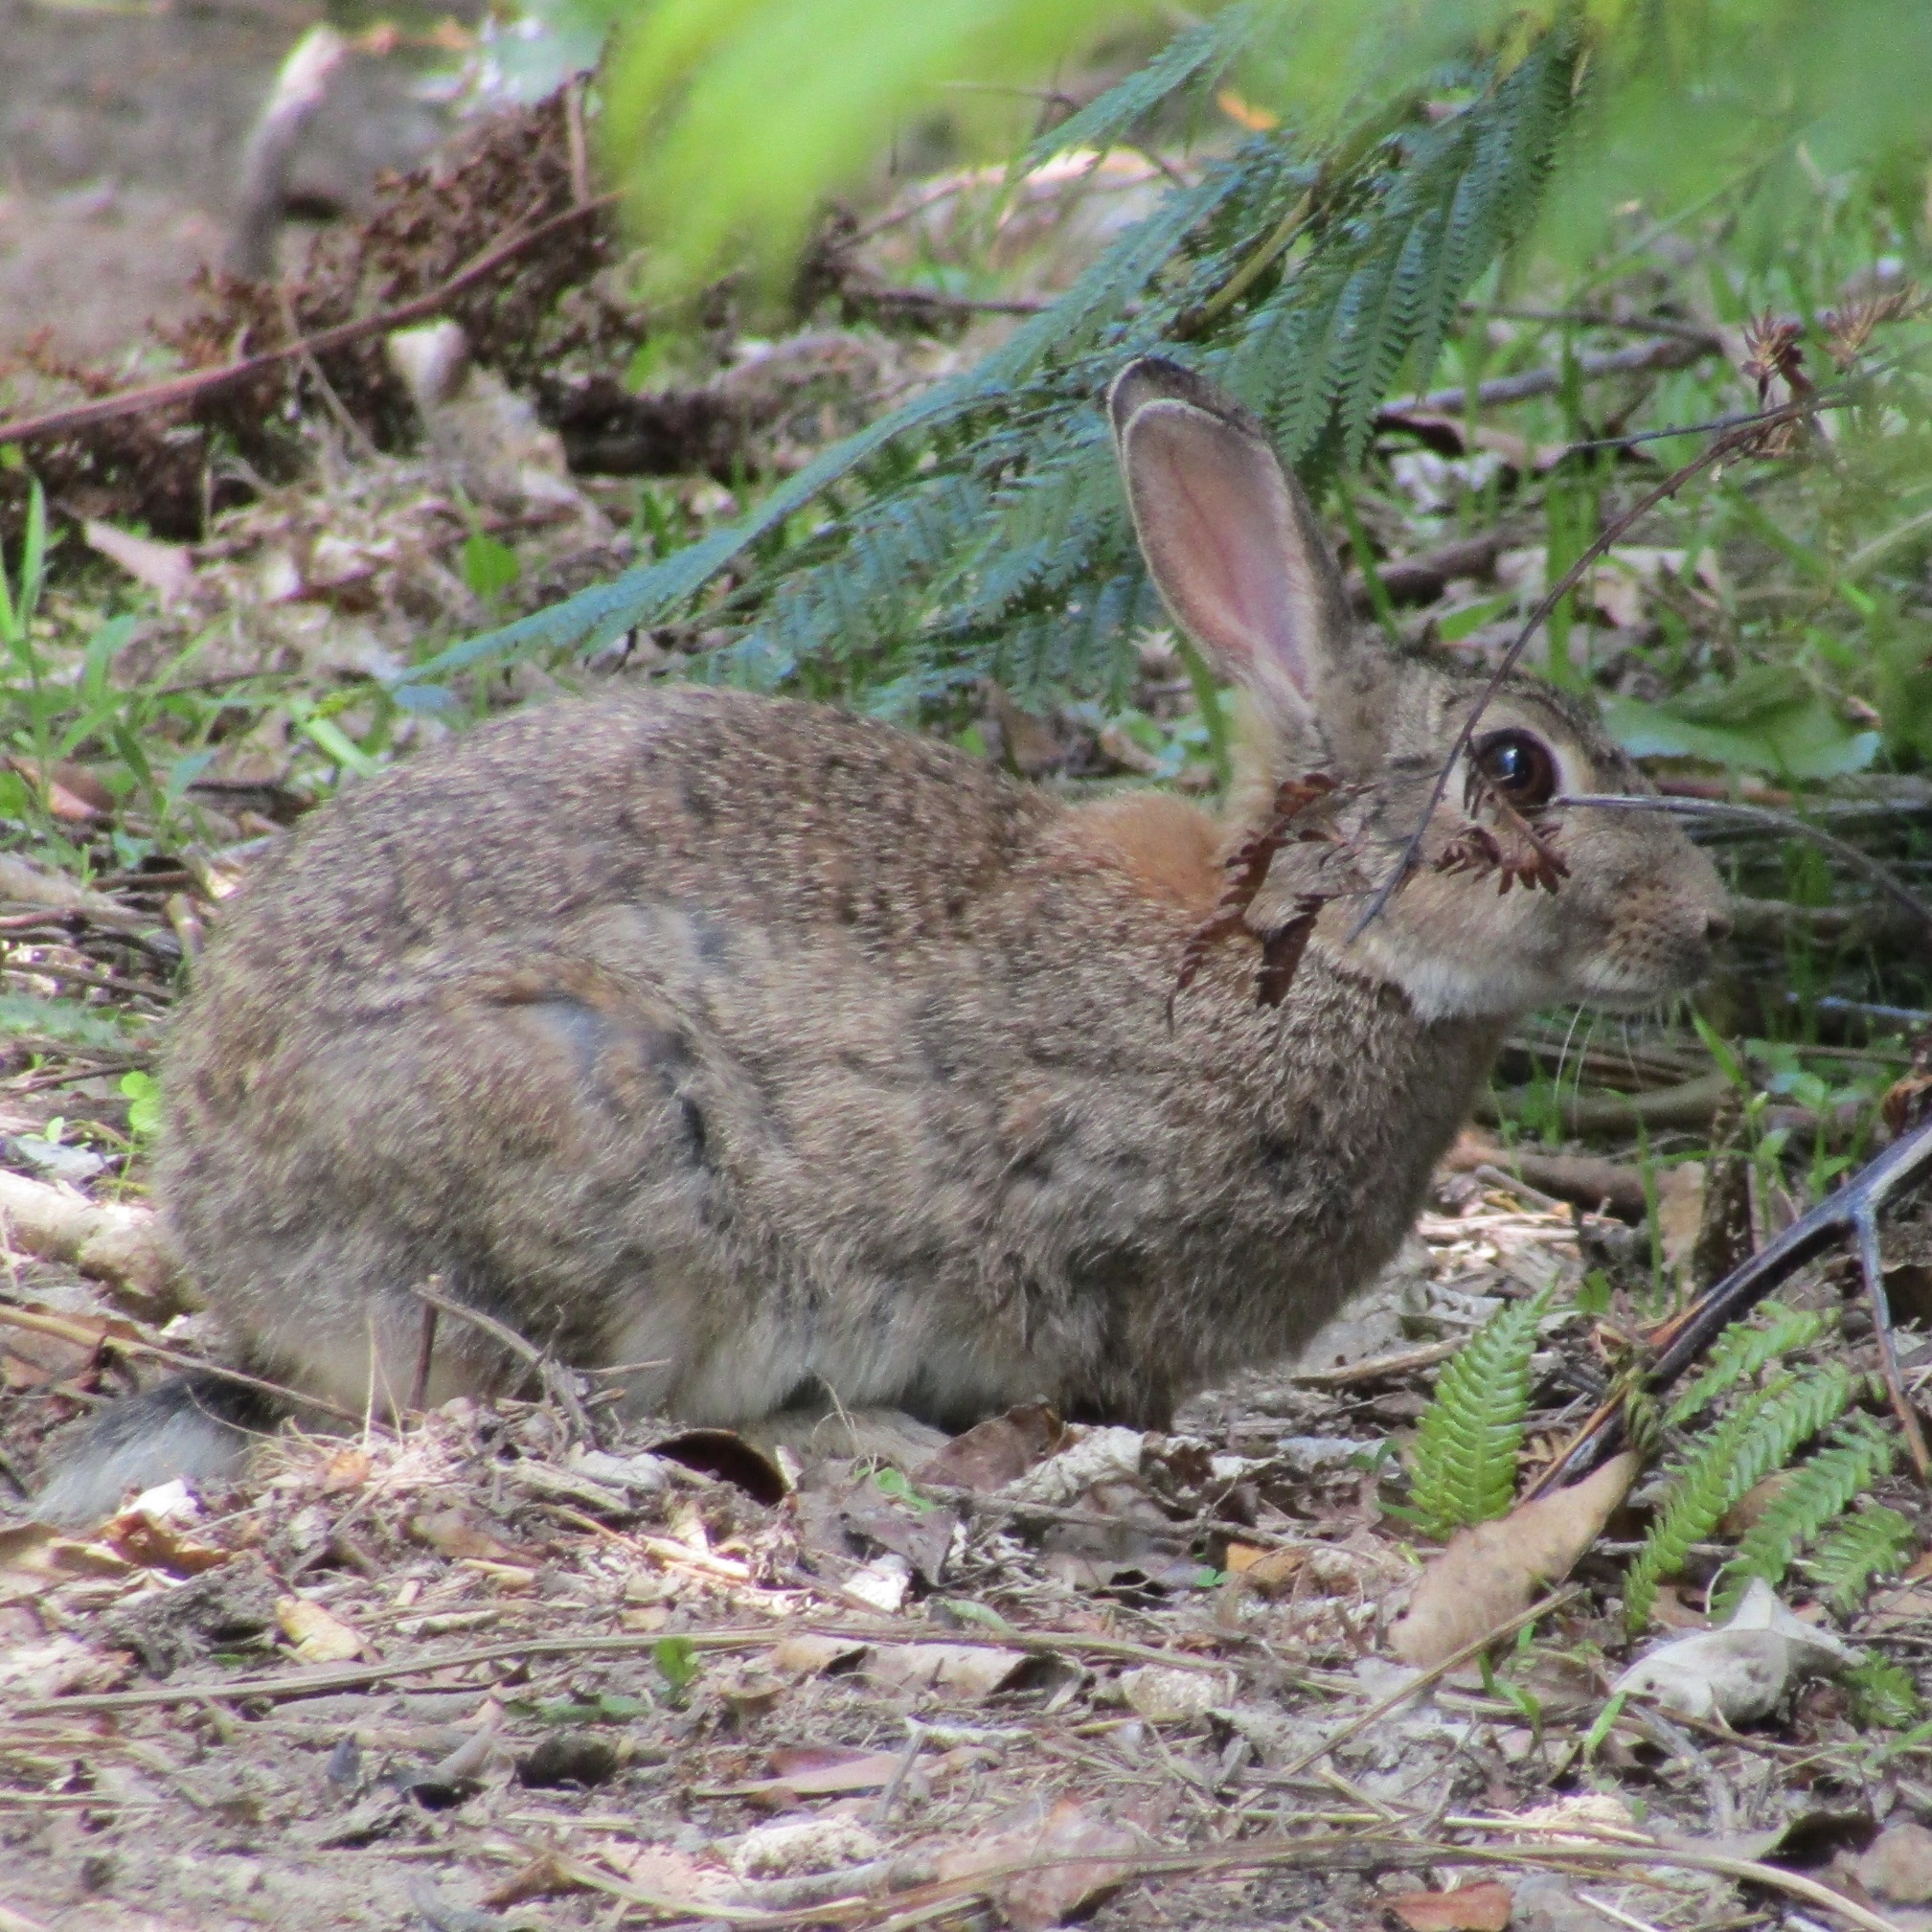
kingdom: Animalia
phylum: Chordata
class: Mammalia
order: Lagomorpha
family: Leporidae
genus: Oryctolagus
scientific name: Oryctolagus cuniculus
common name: European rabbit
